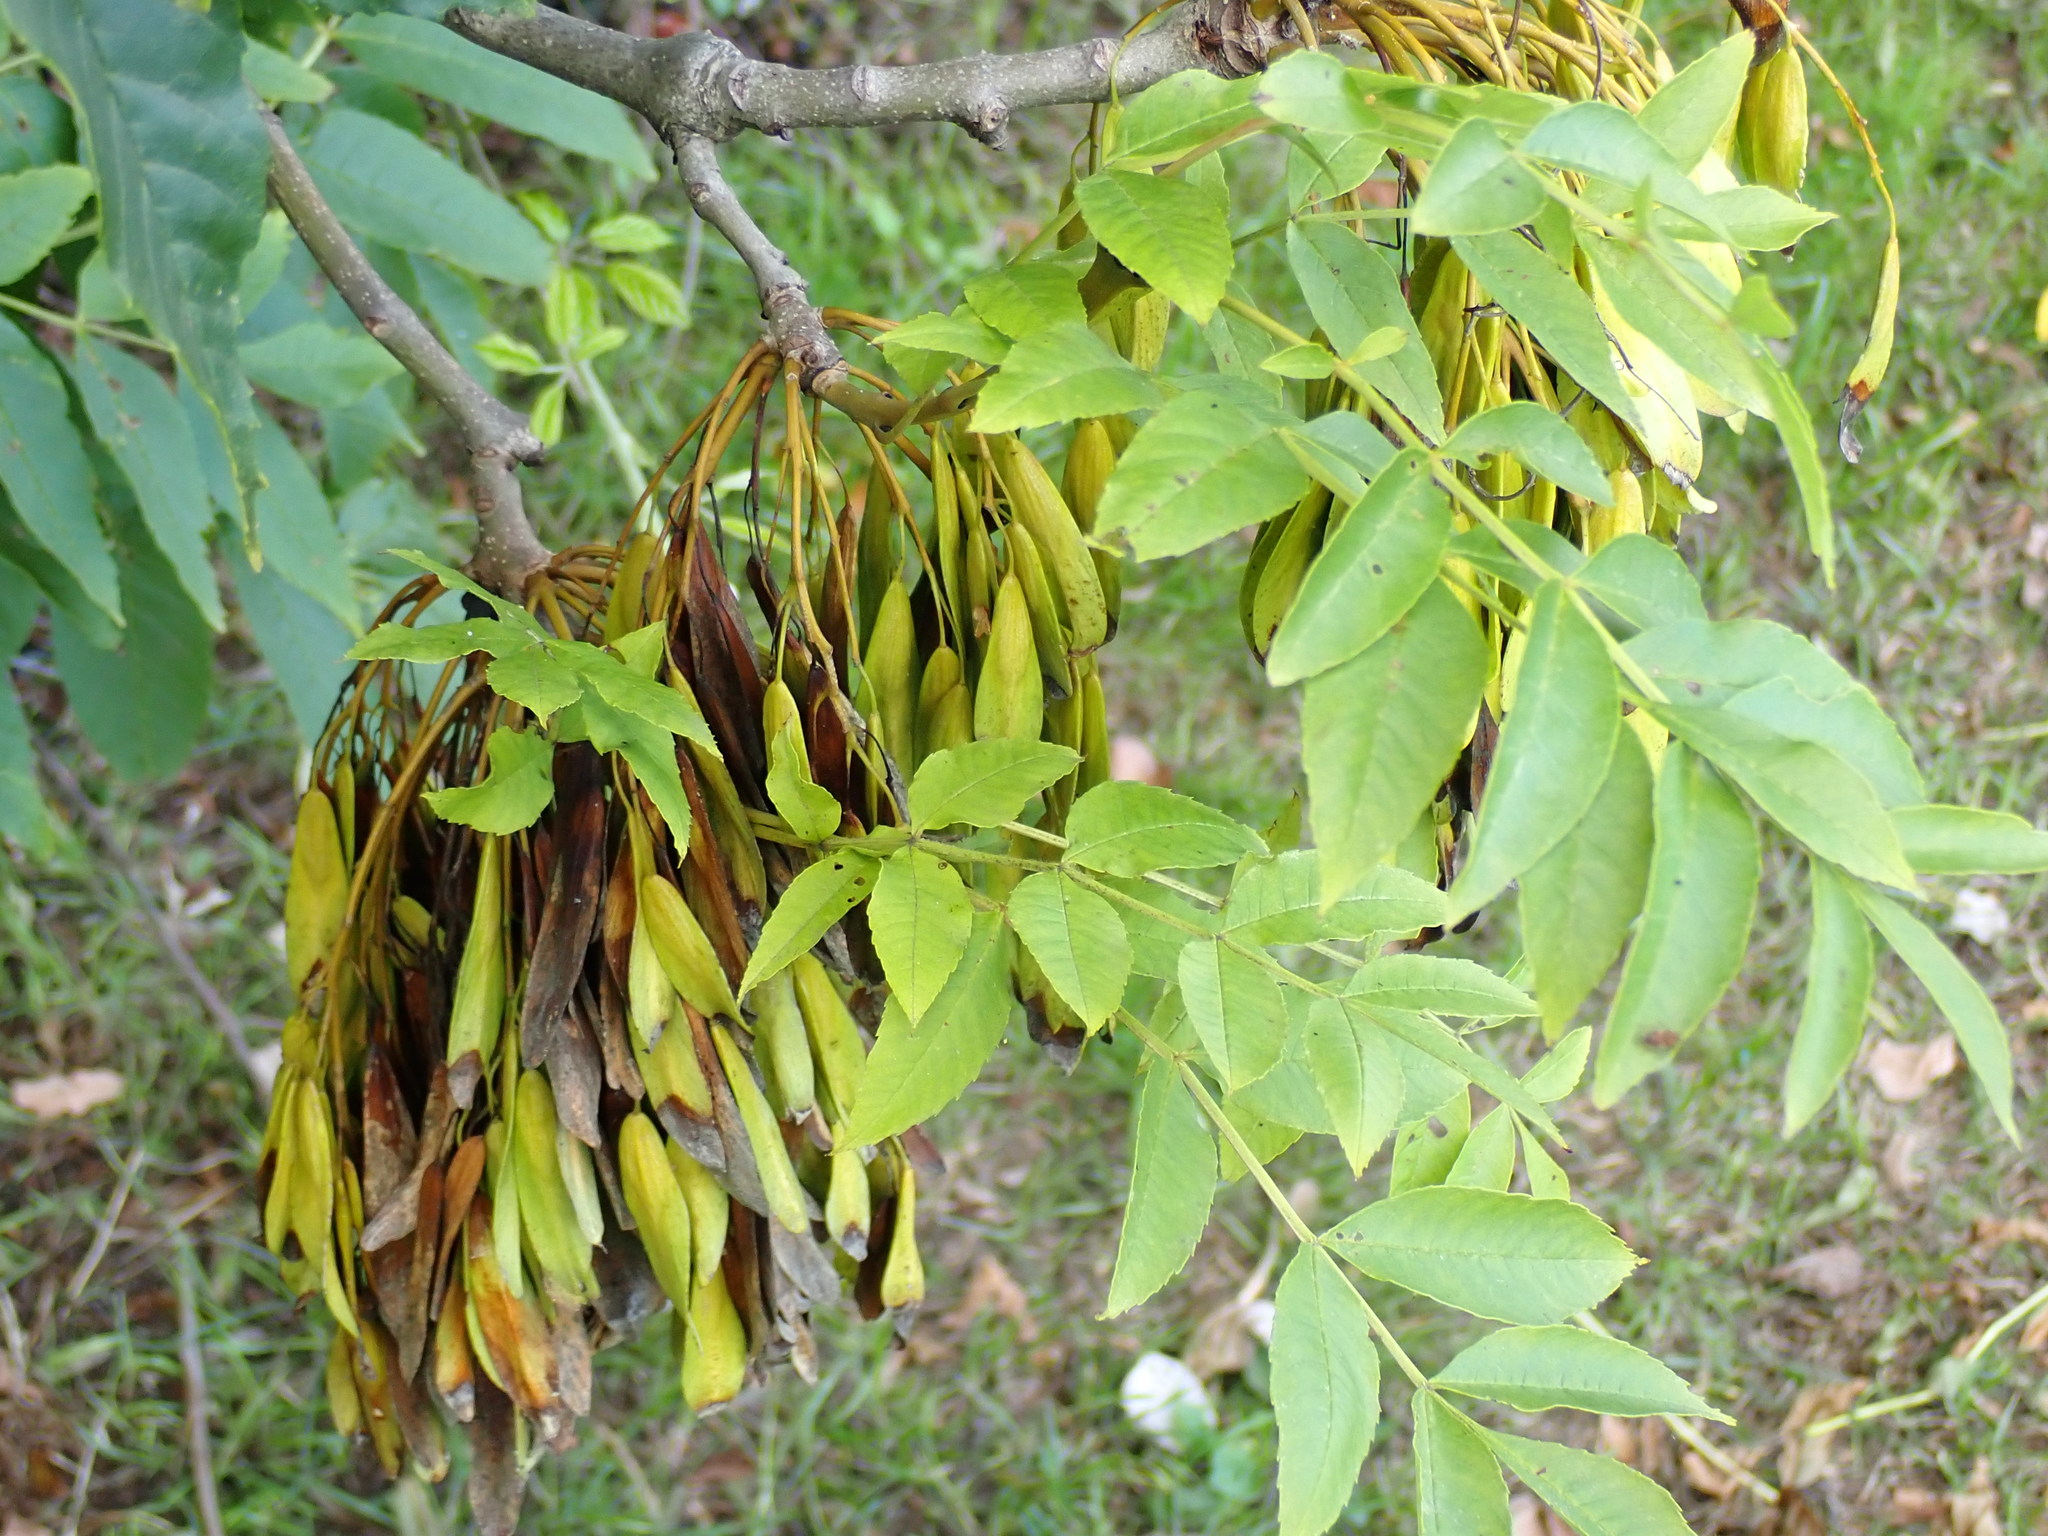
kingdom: Plantae
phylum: Tracheophyta
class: Magnoliopsida
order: Lamiales
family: Oleaceae
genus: Fraxinus
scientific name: Fraxinus excelsior
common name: European ash
